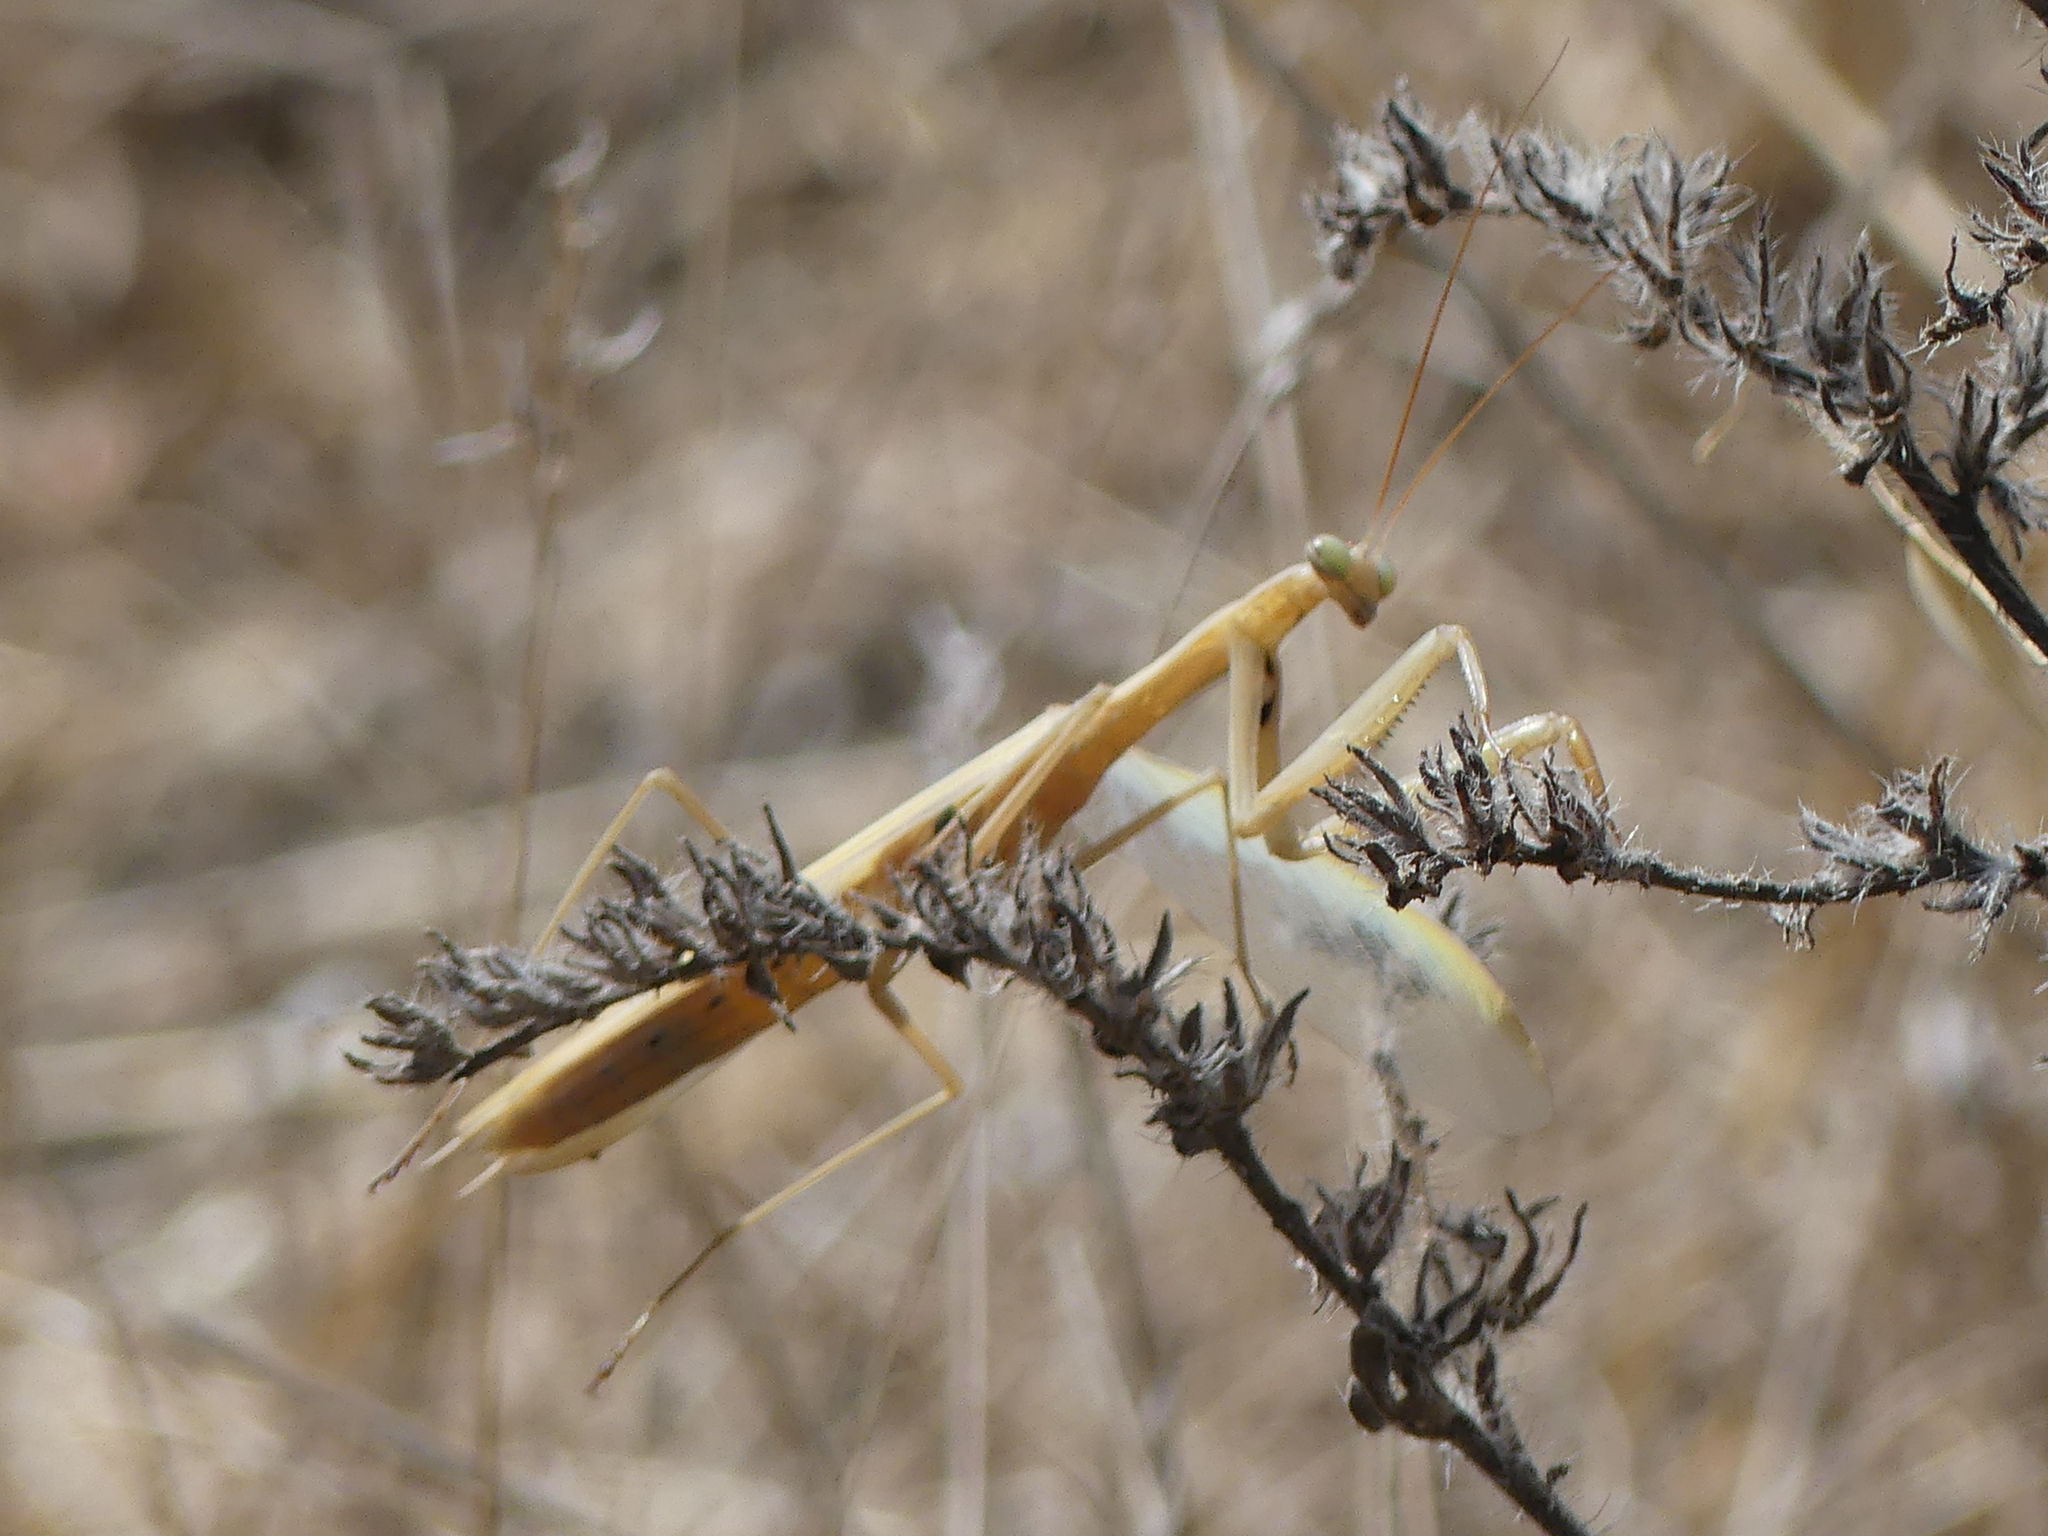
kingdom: Animalia
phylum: Arthropoda
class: Insecta
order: Mantodea
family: Mantidae
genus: Mantis
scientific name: Mantis religiosa
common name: Praying mantis
